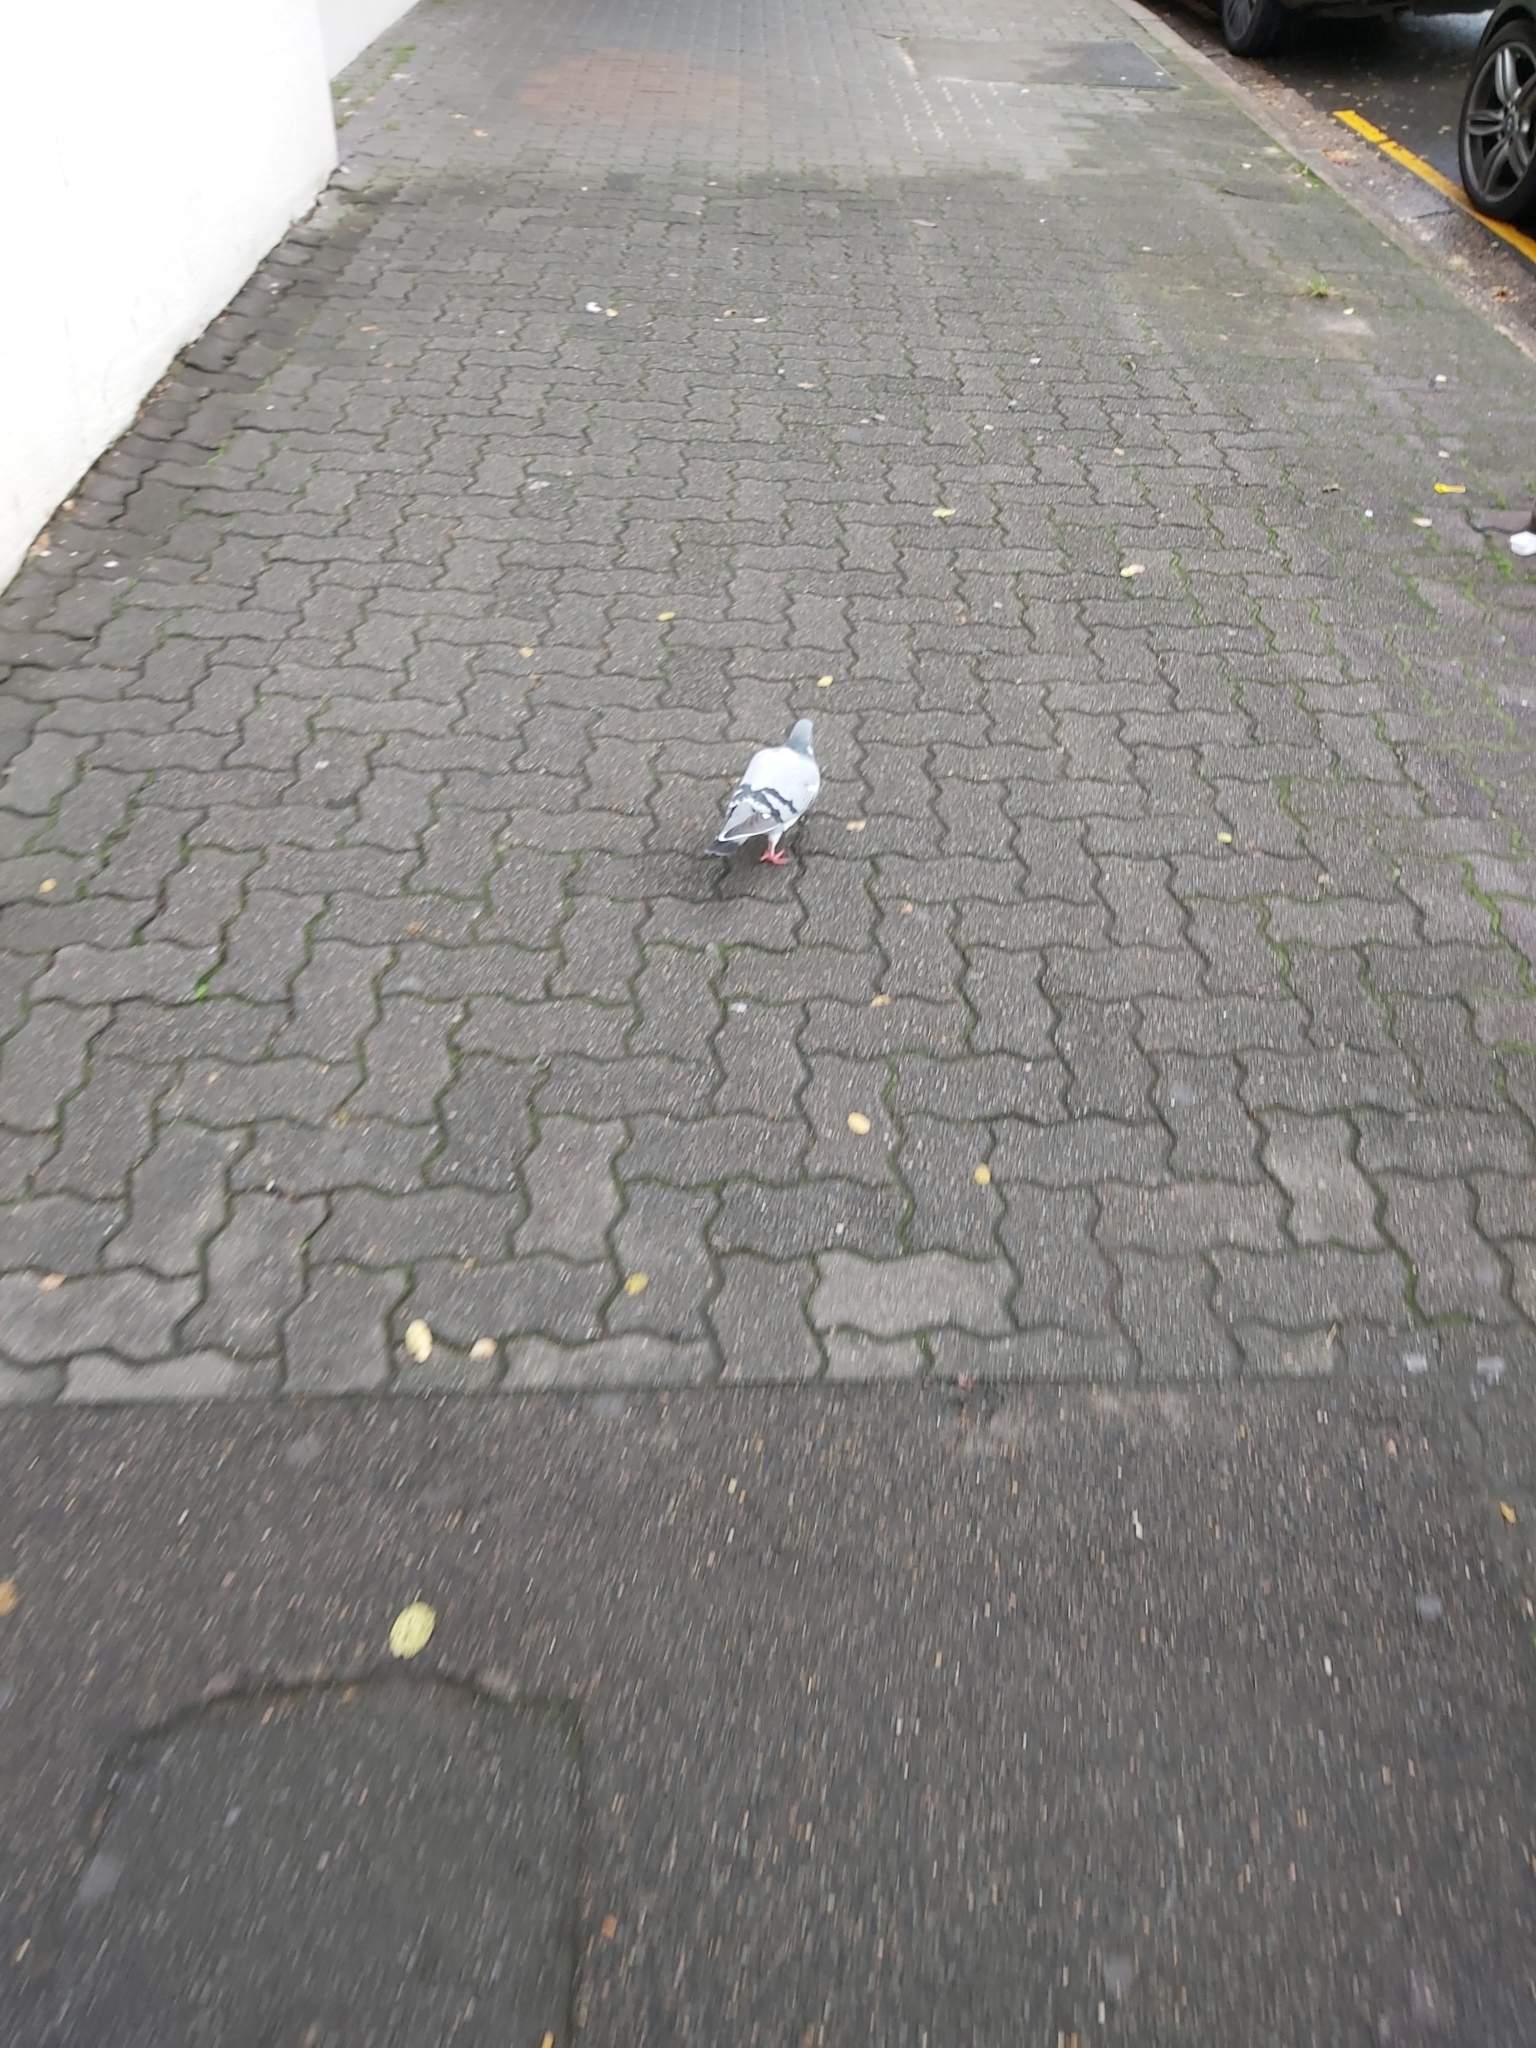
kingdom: Animalia
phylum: Chordata
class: Aves
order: Columbiformes
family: Columbidae
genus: Columba
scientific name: Columba livia
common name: Rock pigeon
